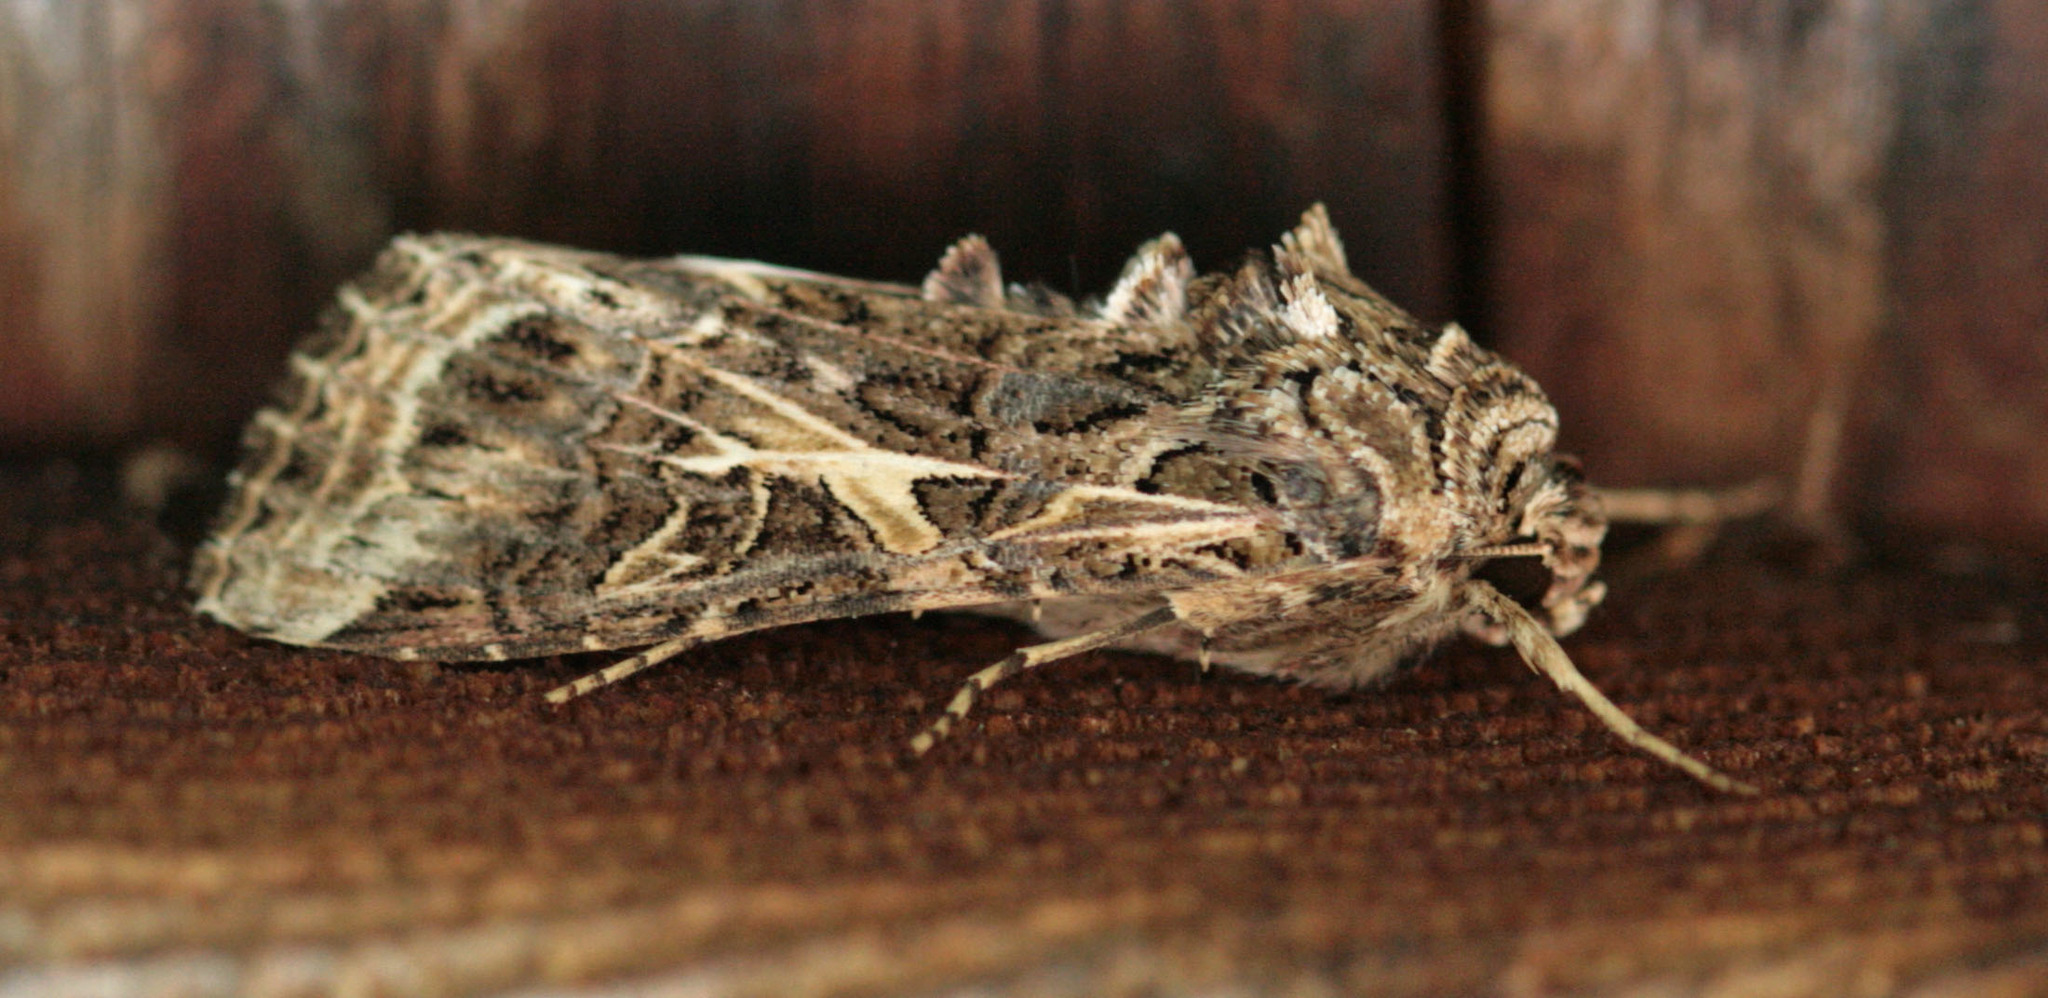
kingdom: Animalia
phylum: Arthropoda
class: Insecta
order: Lepidoptera
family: Noctuidae
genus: Spodoptera
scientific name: Spodoptera ornithogalli
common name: Yellow-striped armyworm
